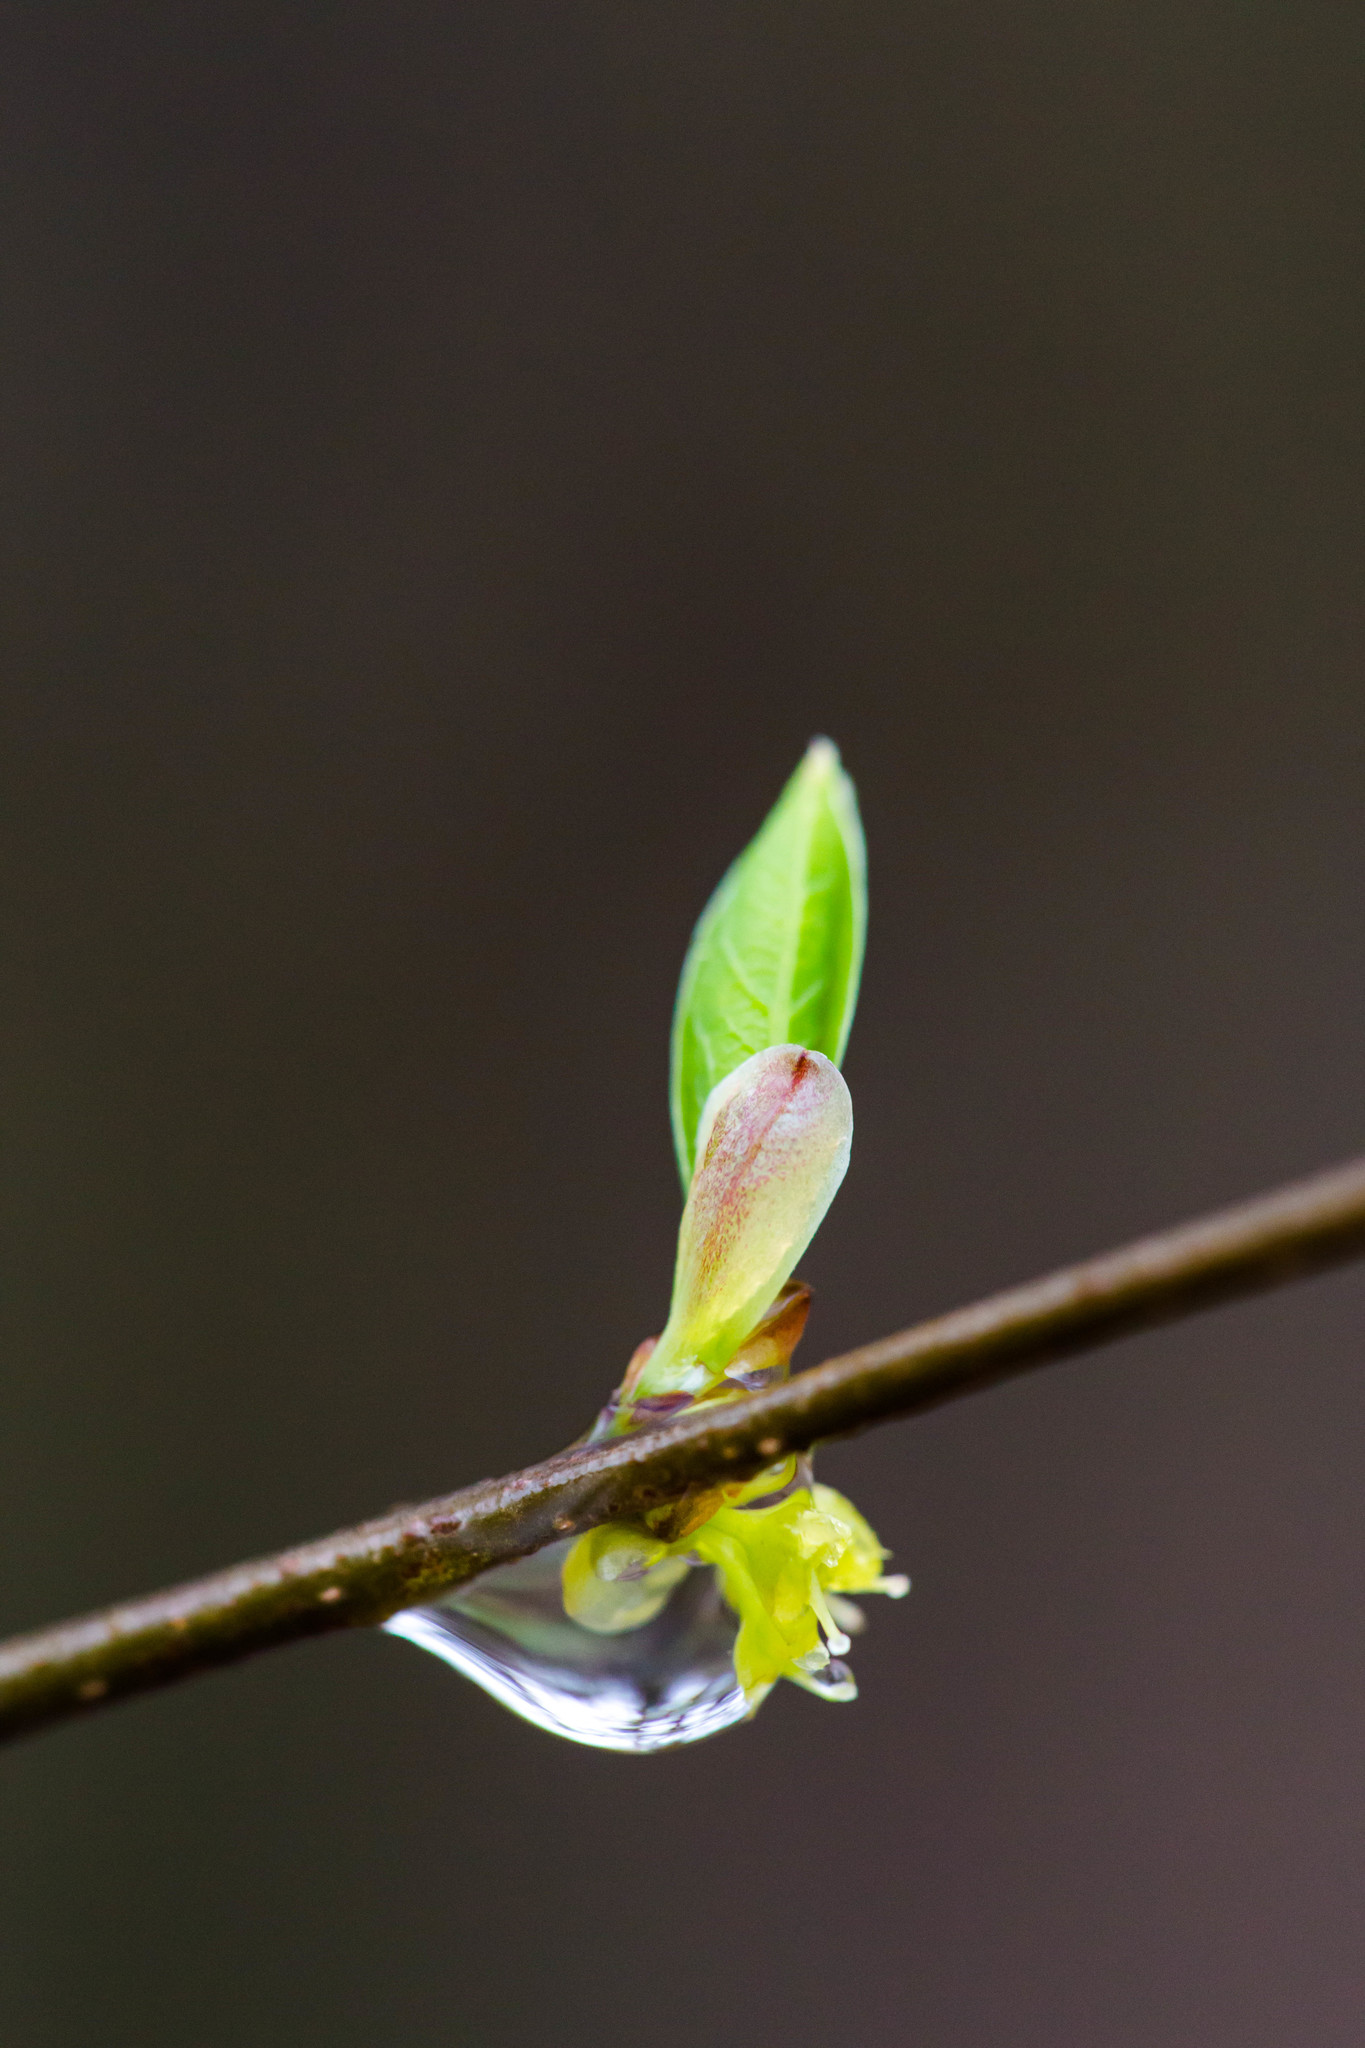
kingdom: Plantae
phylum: Tracheophyta
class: Magnoliopsida
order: Laurales
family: Lauraceae
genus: Lindera
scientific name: Lindera benzoin
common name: Spicebush
